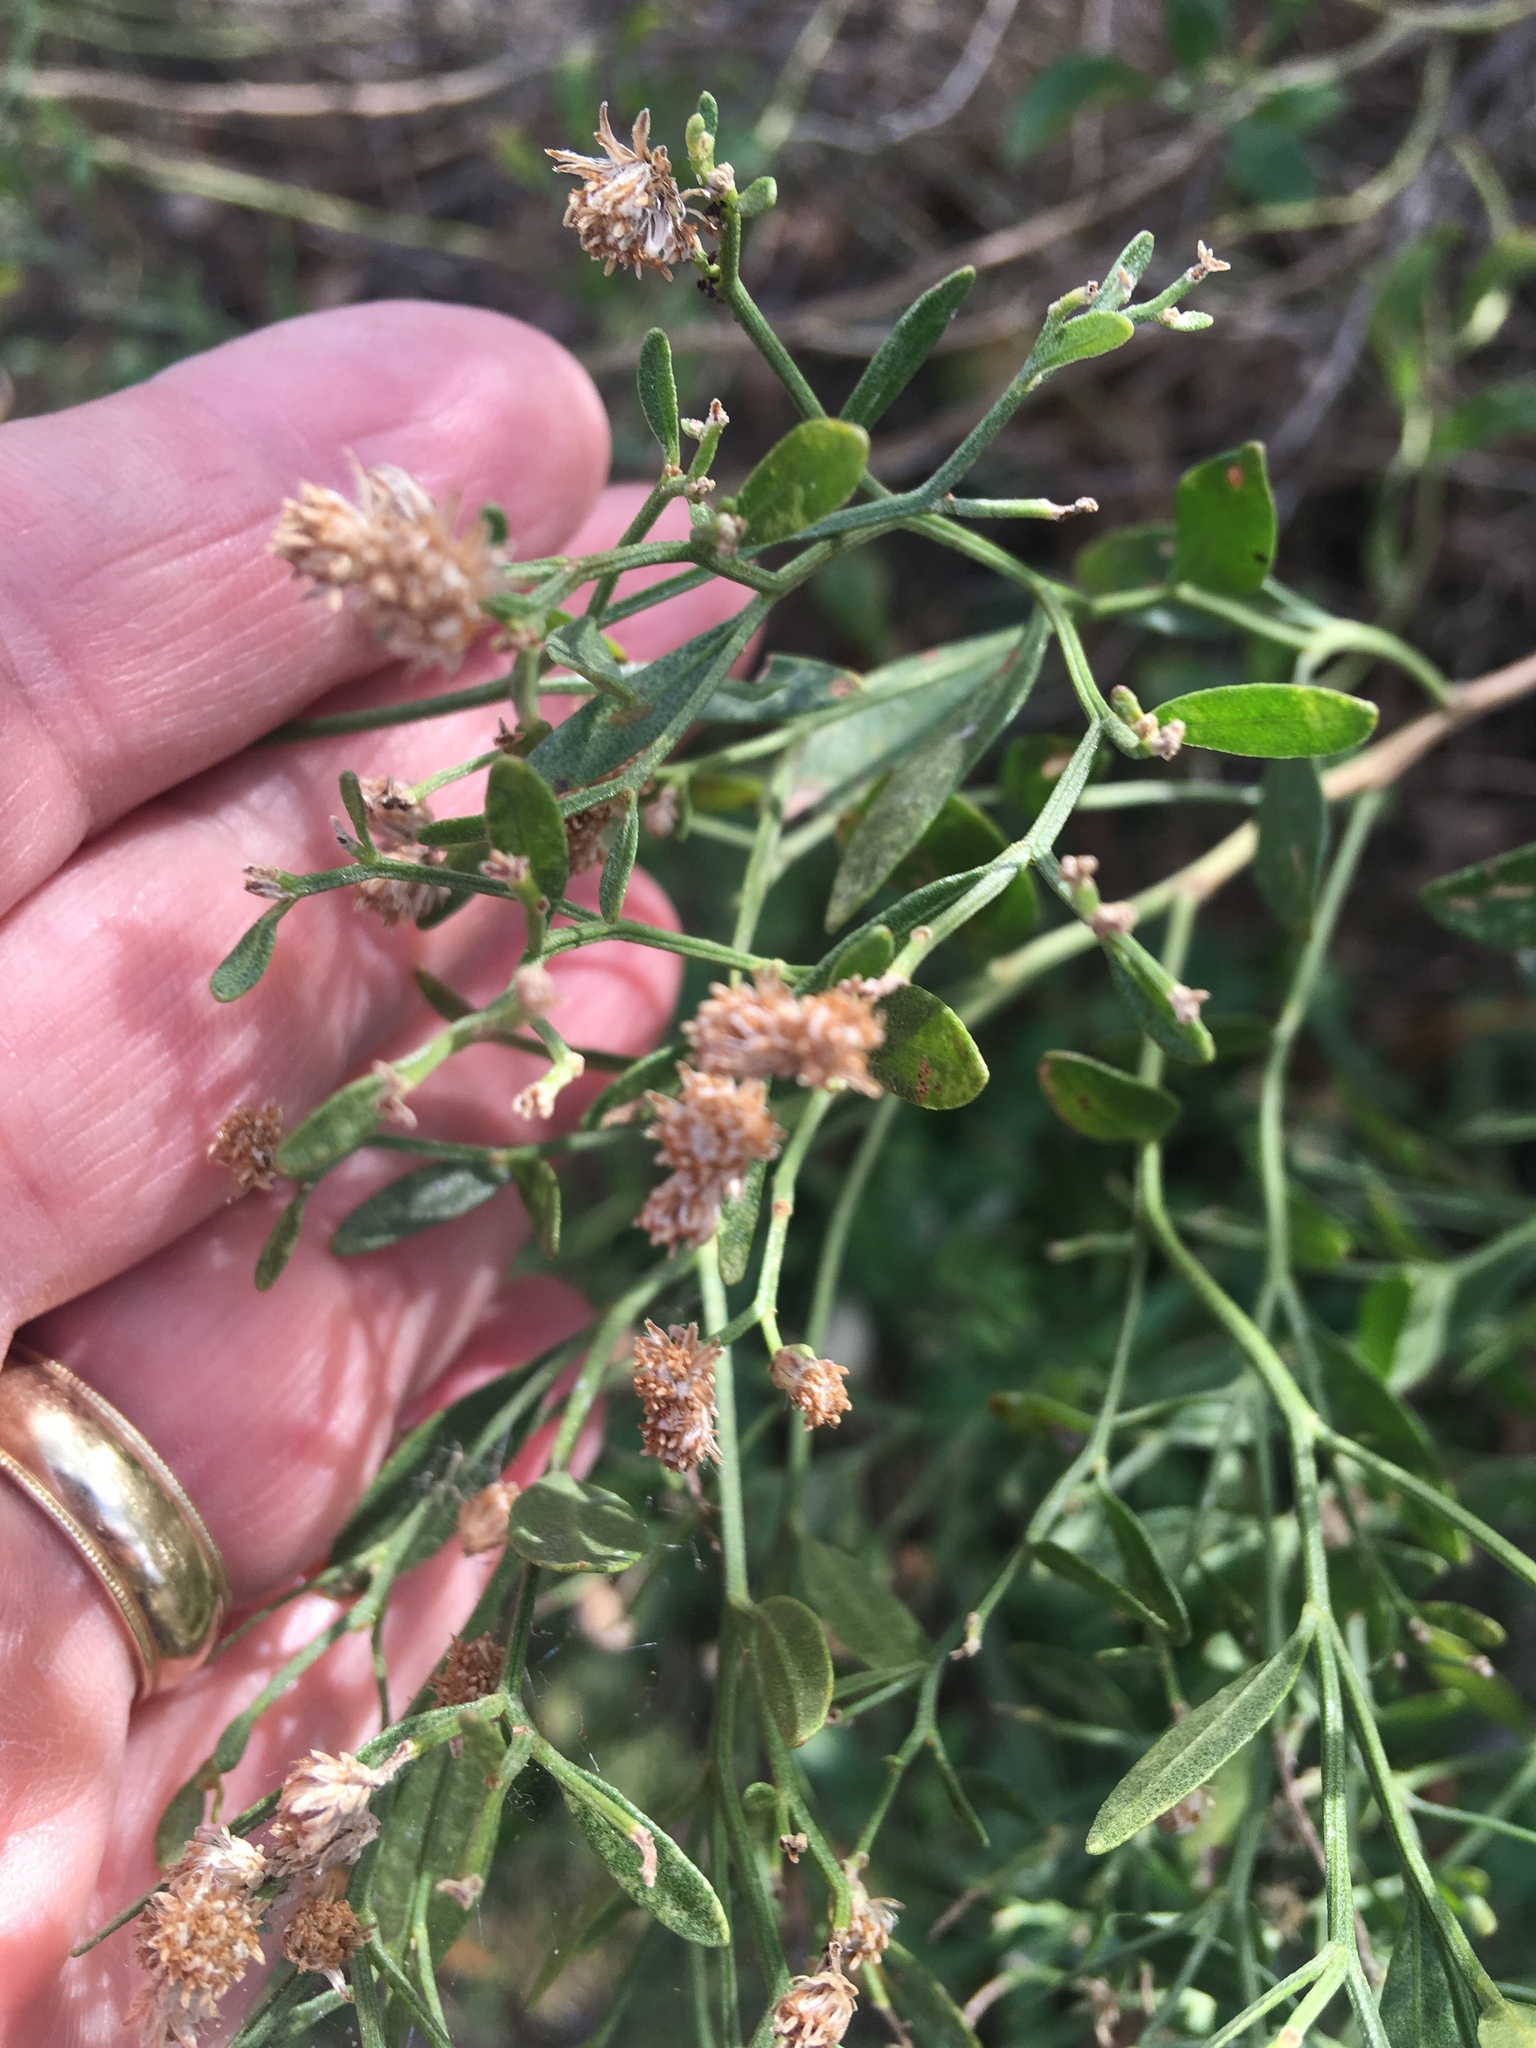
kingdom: Plantae
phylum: Tracheophyta
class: Magnoliopsida
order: Asterales
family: Asteraceae
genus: Baccharis
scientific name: Baccharis halimifolia
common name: Eastern baccharis
